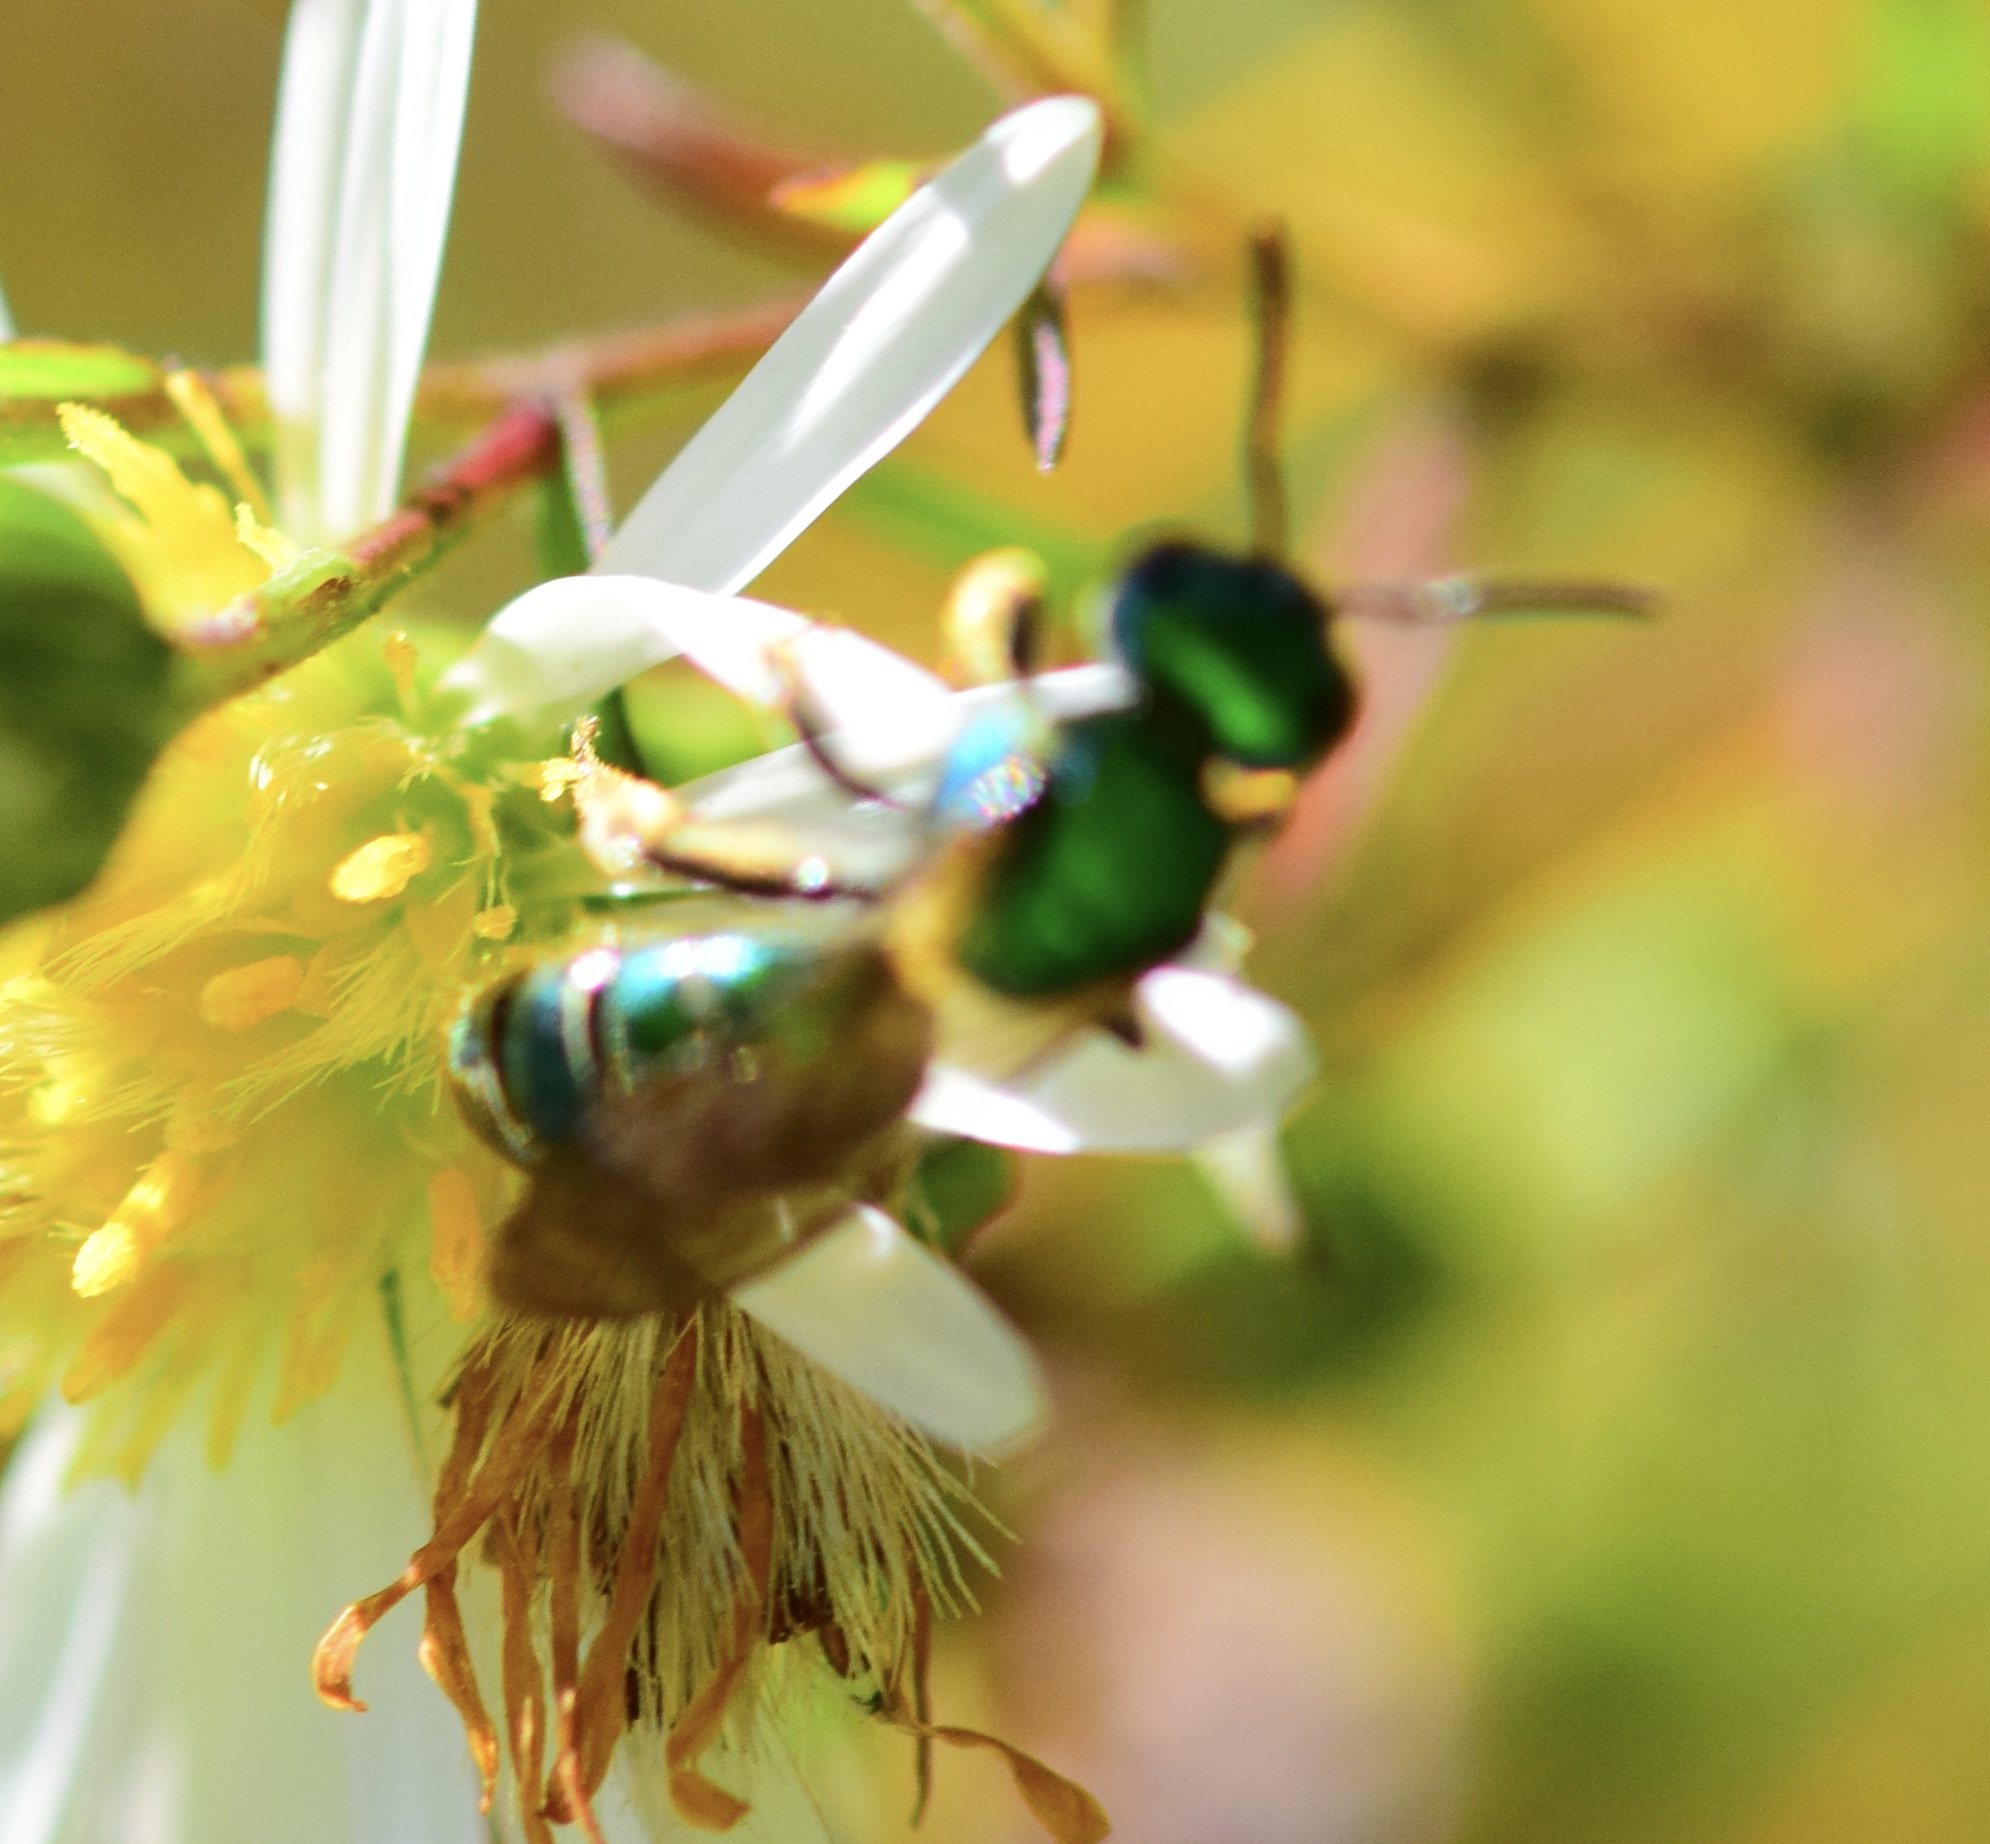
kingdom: Animalia
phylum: Arthropoda
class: Insecta
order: Hymenoptera
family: Halictidae
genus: Augochlora
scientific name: Augochlora pura
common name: Pure green sweat bee
